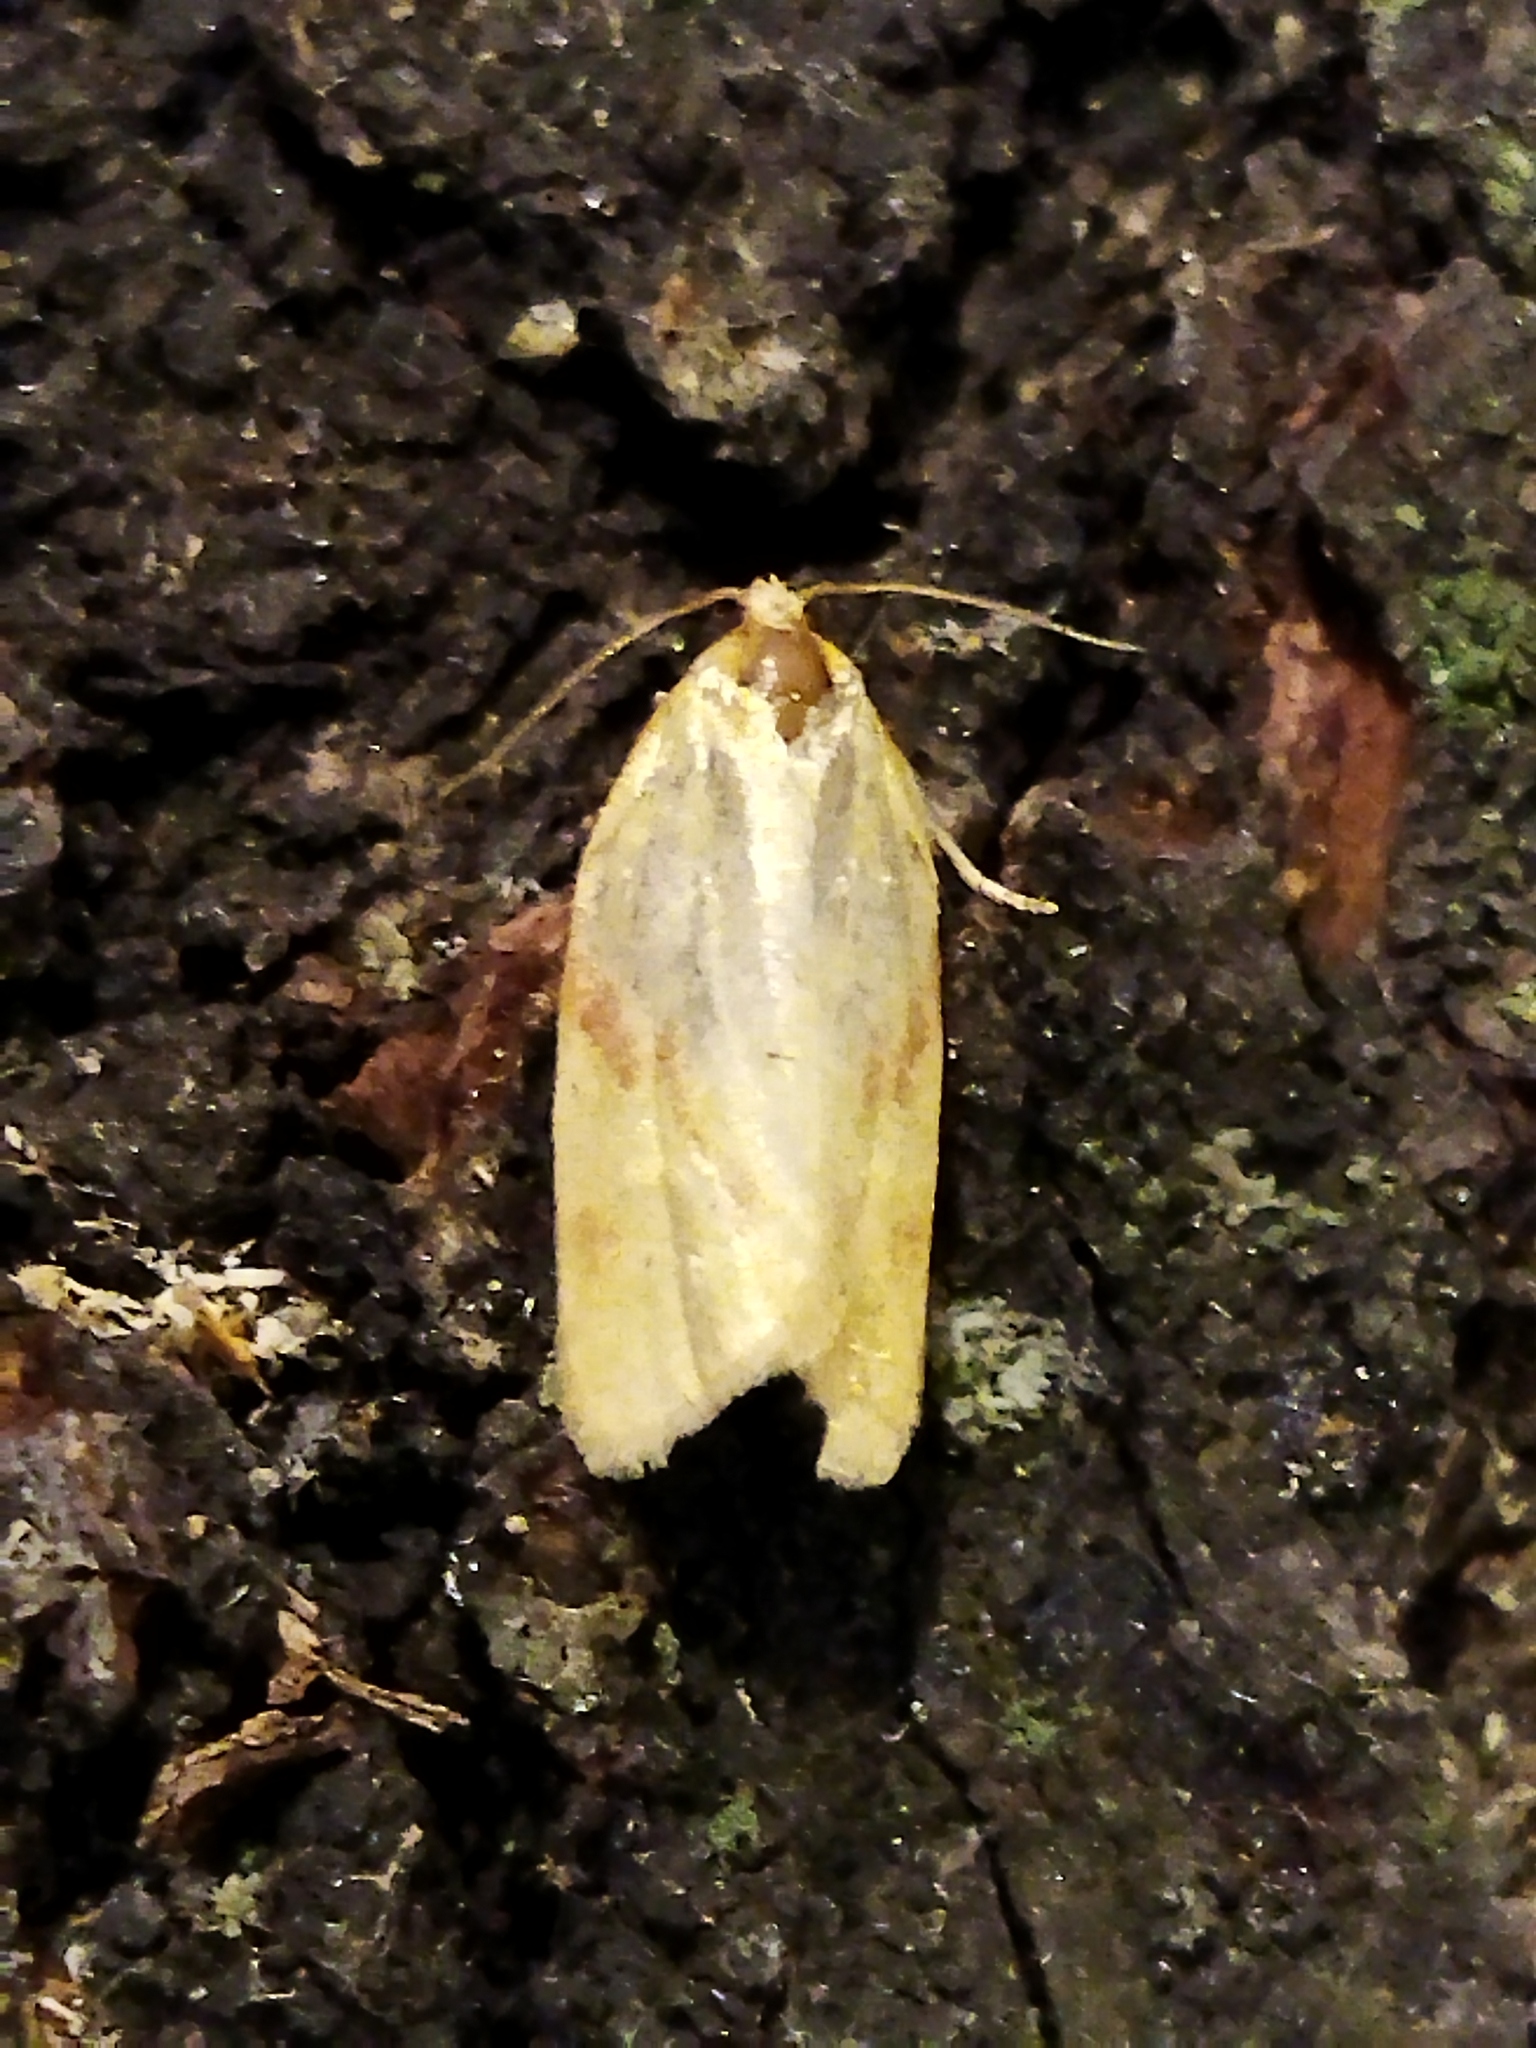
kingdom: Animalia
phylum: Arthropoda
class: Insecta
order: Lepidoptera
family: Tortricidae
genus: Clepsis
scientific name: Clepsis pallidana
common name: Sheep's-bit conch
